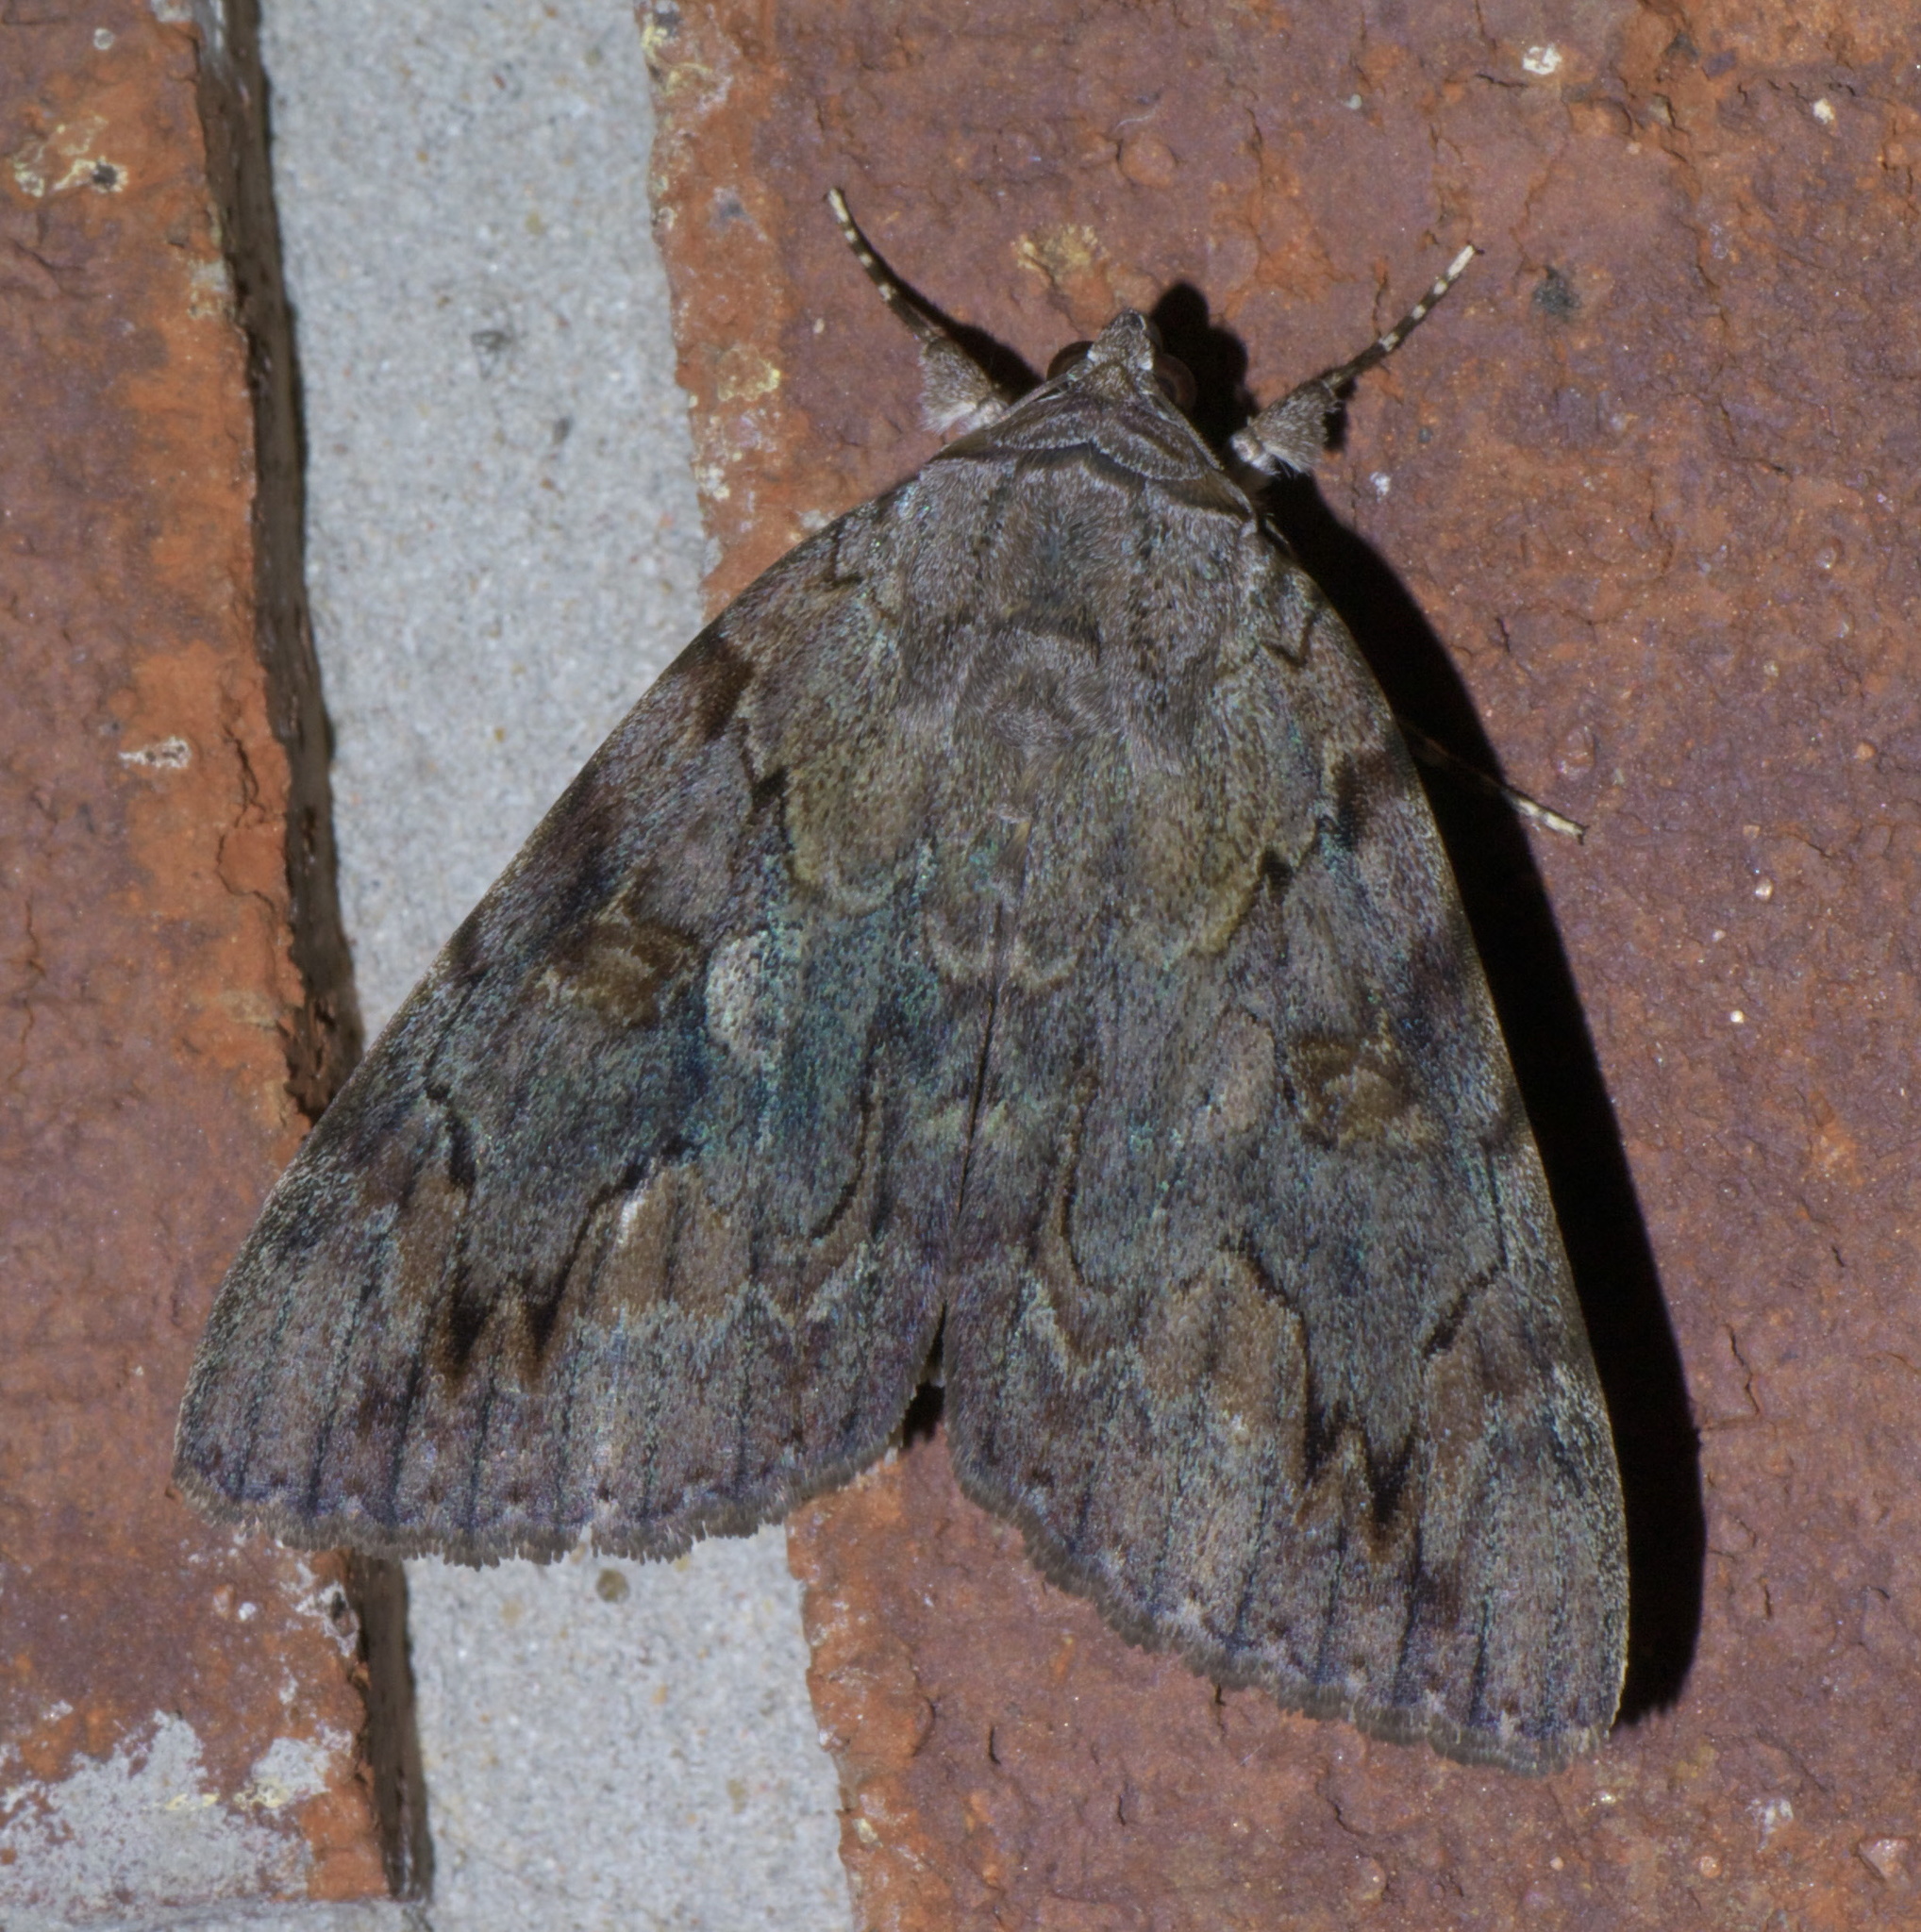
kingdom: Animalia
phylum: Arthropoda
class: Insecta
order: Lepidoptera
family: Erebidae
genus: Catocala
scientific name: Catocala agrippina
